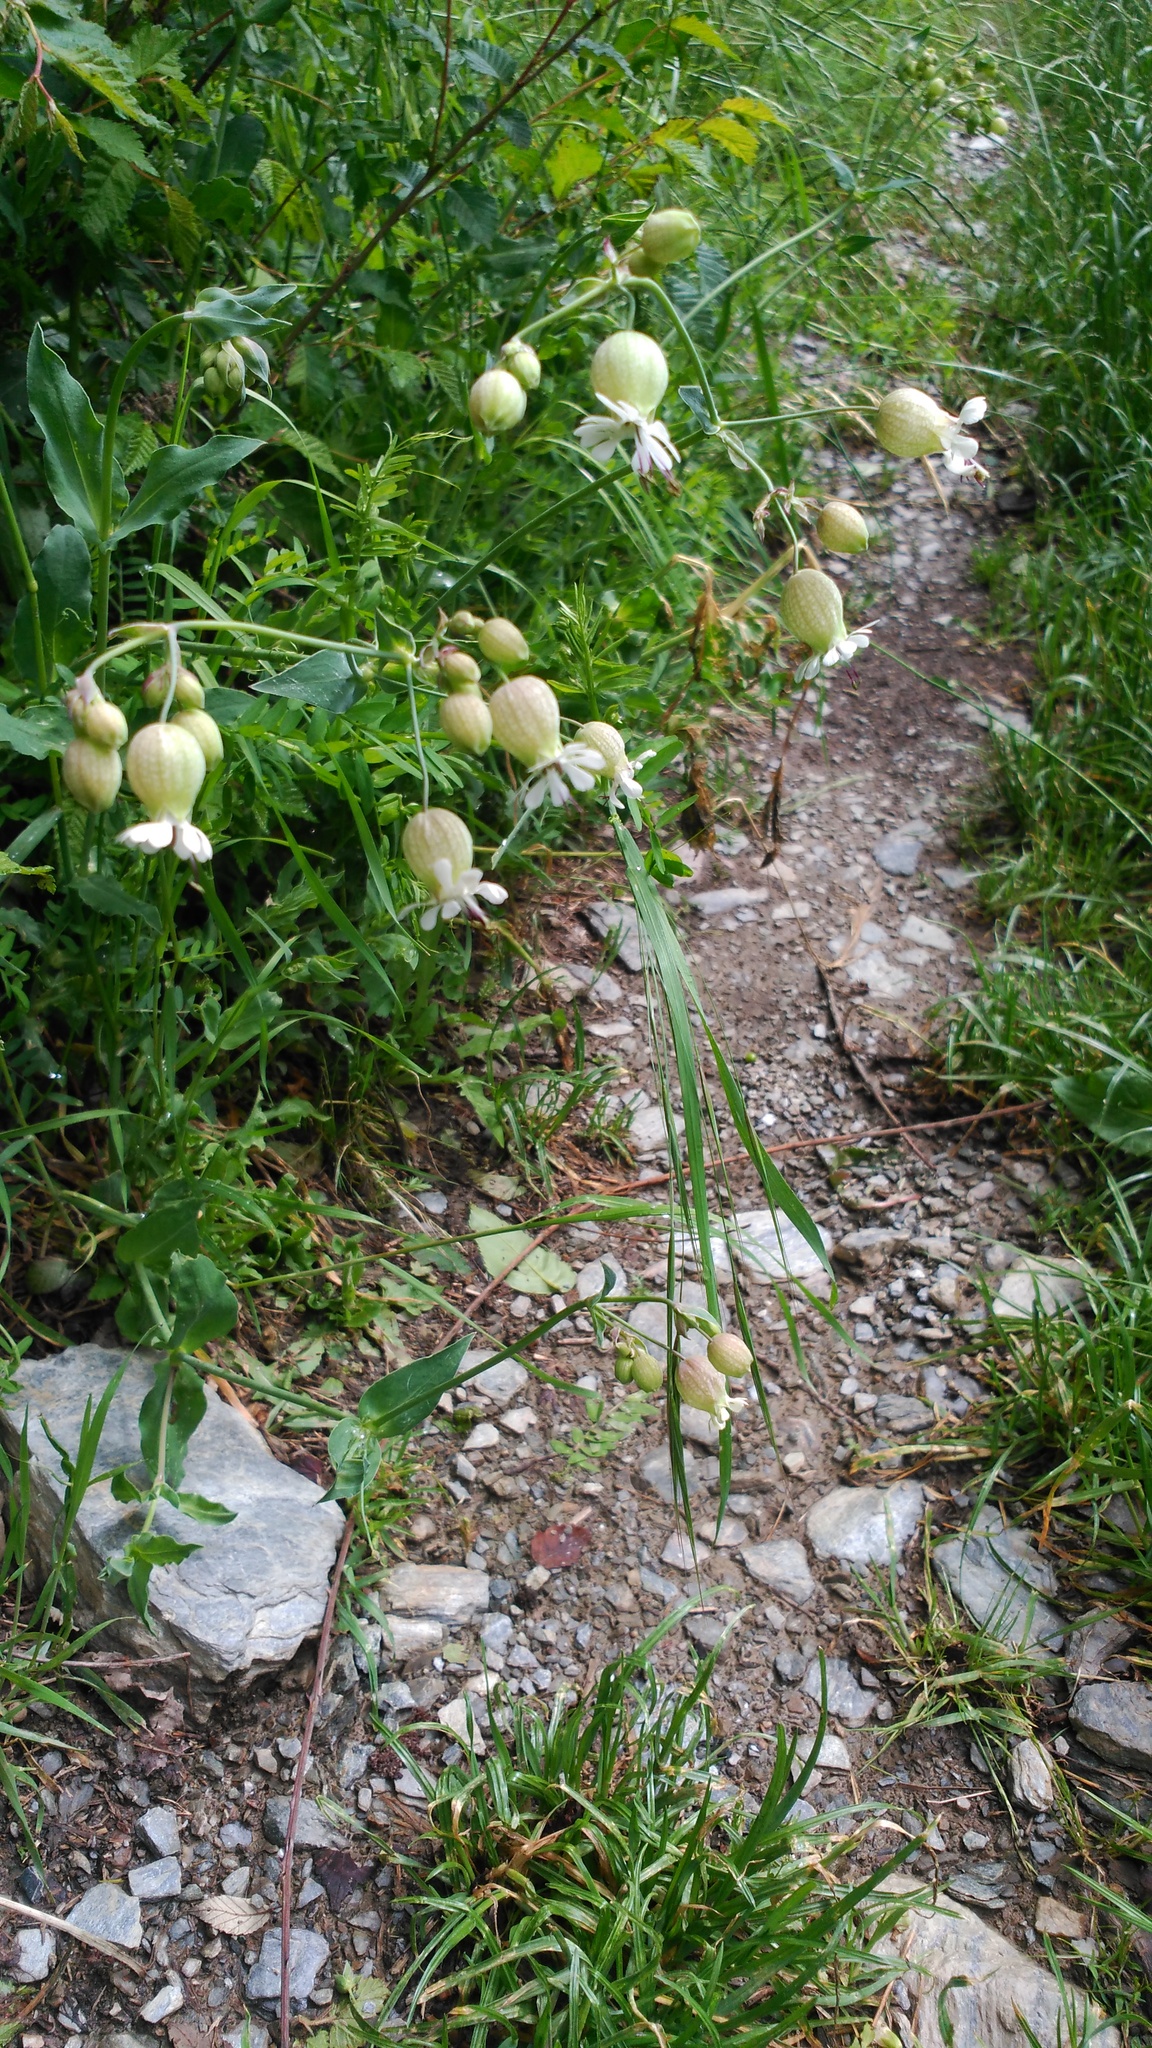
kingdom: Plantae
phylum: Tracheophyta
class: Magnoliopsida
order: Caryophyllales
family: Caryophyllaceae
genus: Silene
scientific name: Silene vulgaris
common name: Bladder campion
